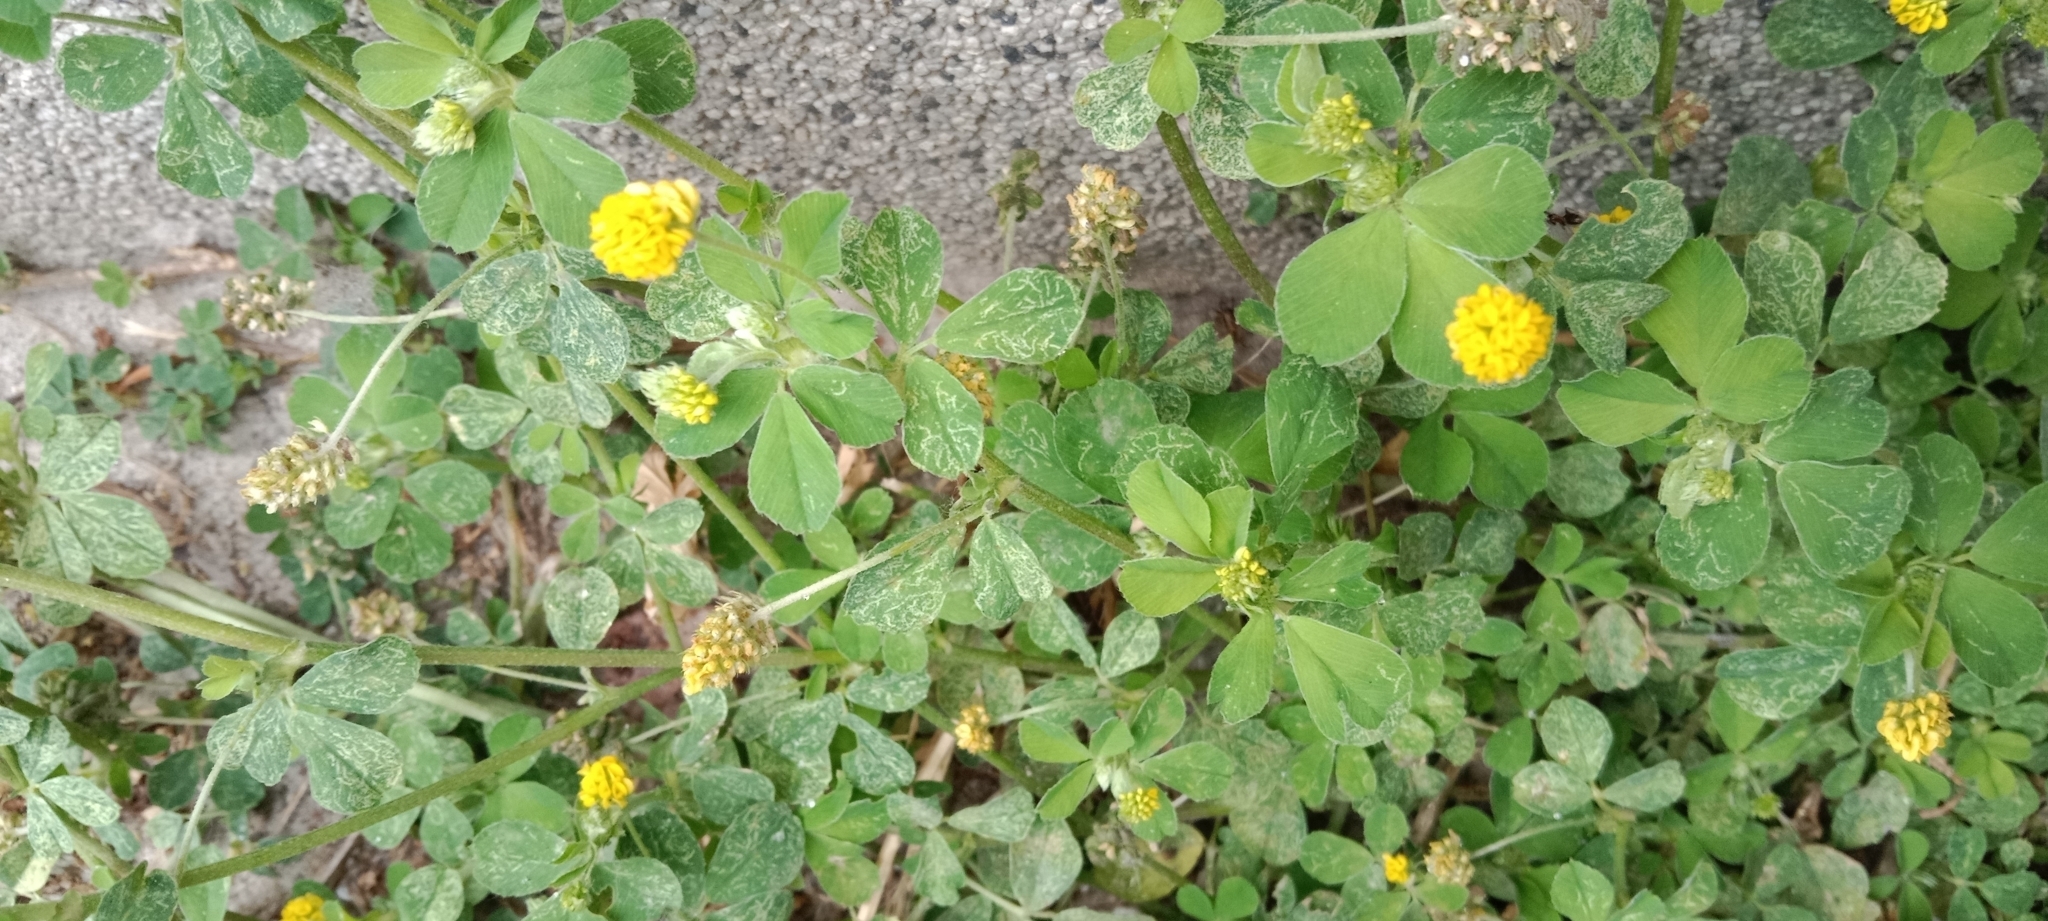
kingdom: Plantae
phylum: Tracheophyta
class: Magnoliopsida
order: Fabales
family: Fabaceae
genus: Medicago
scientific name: Medicago lupulina
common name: Black medick
